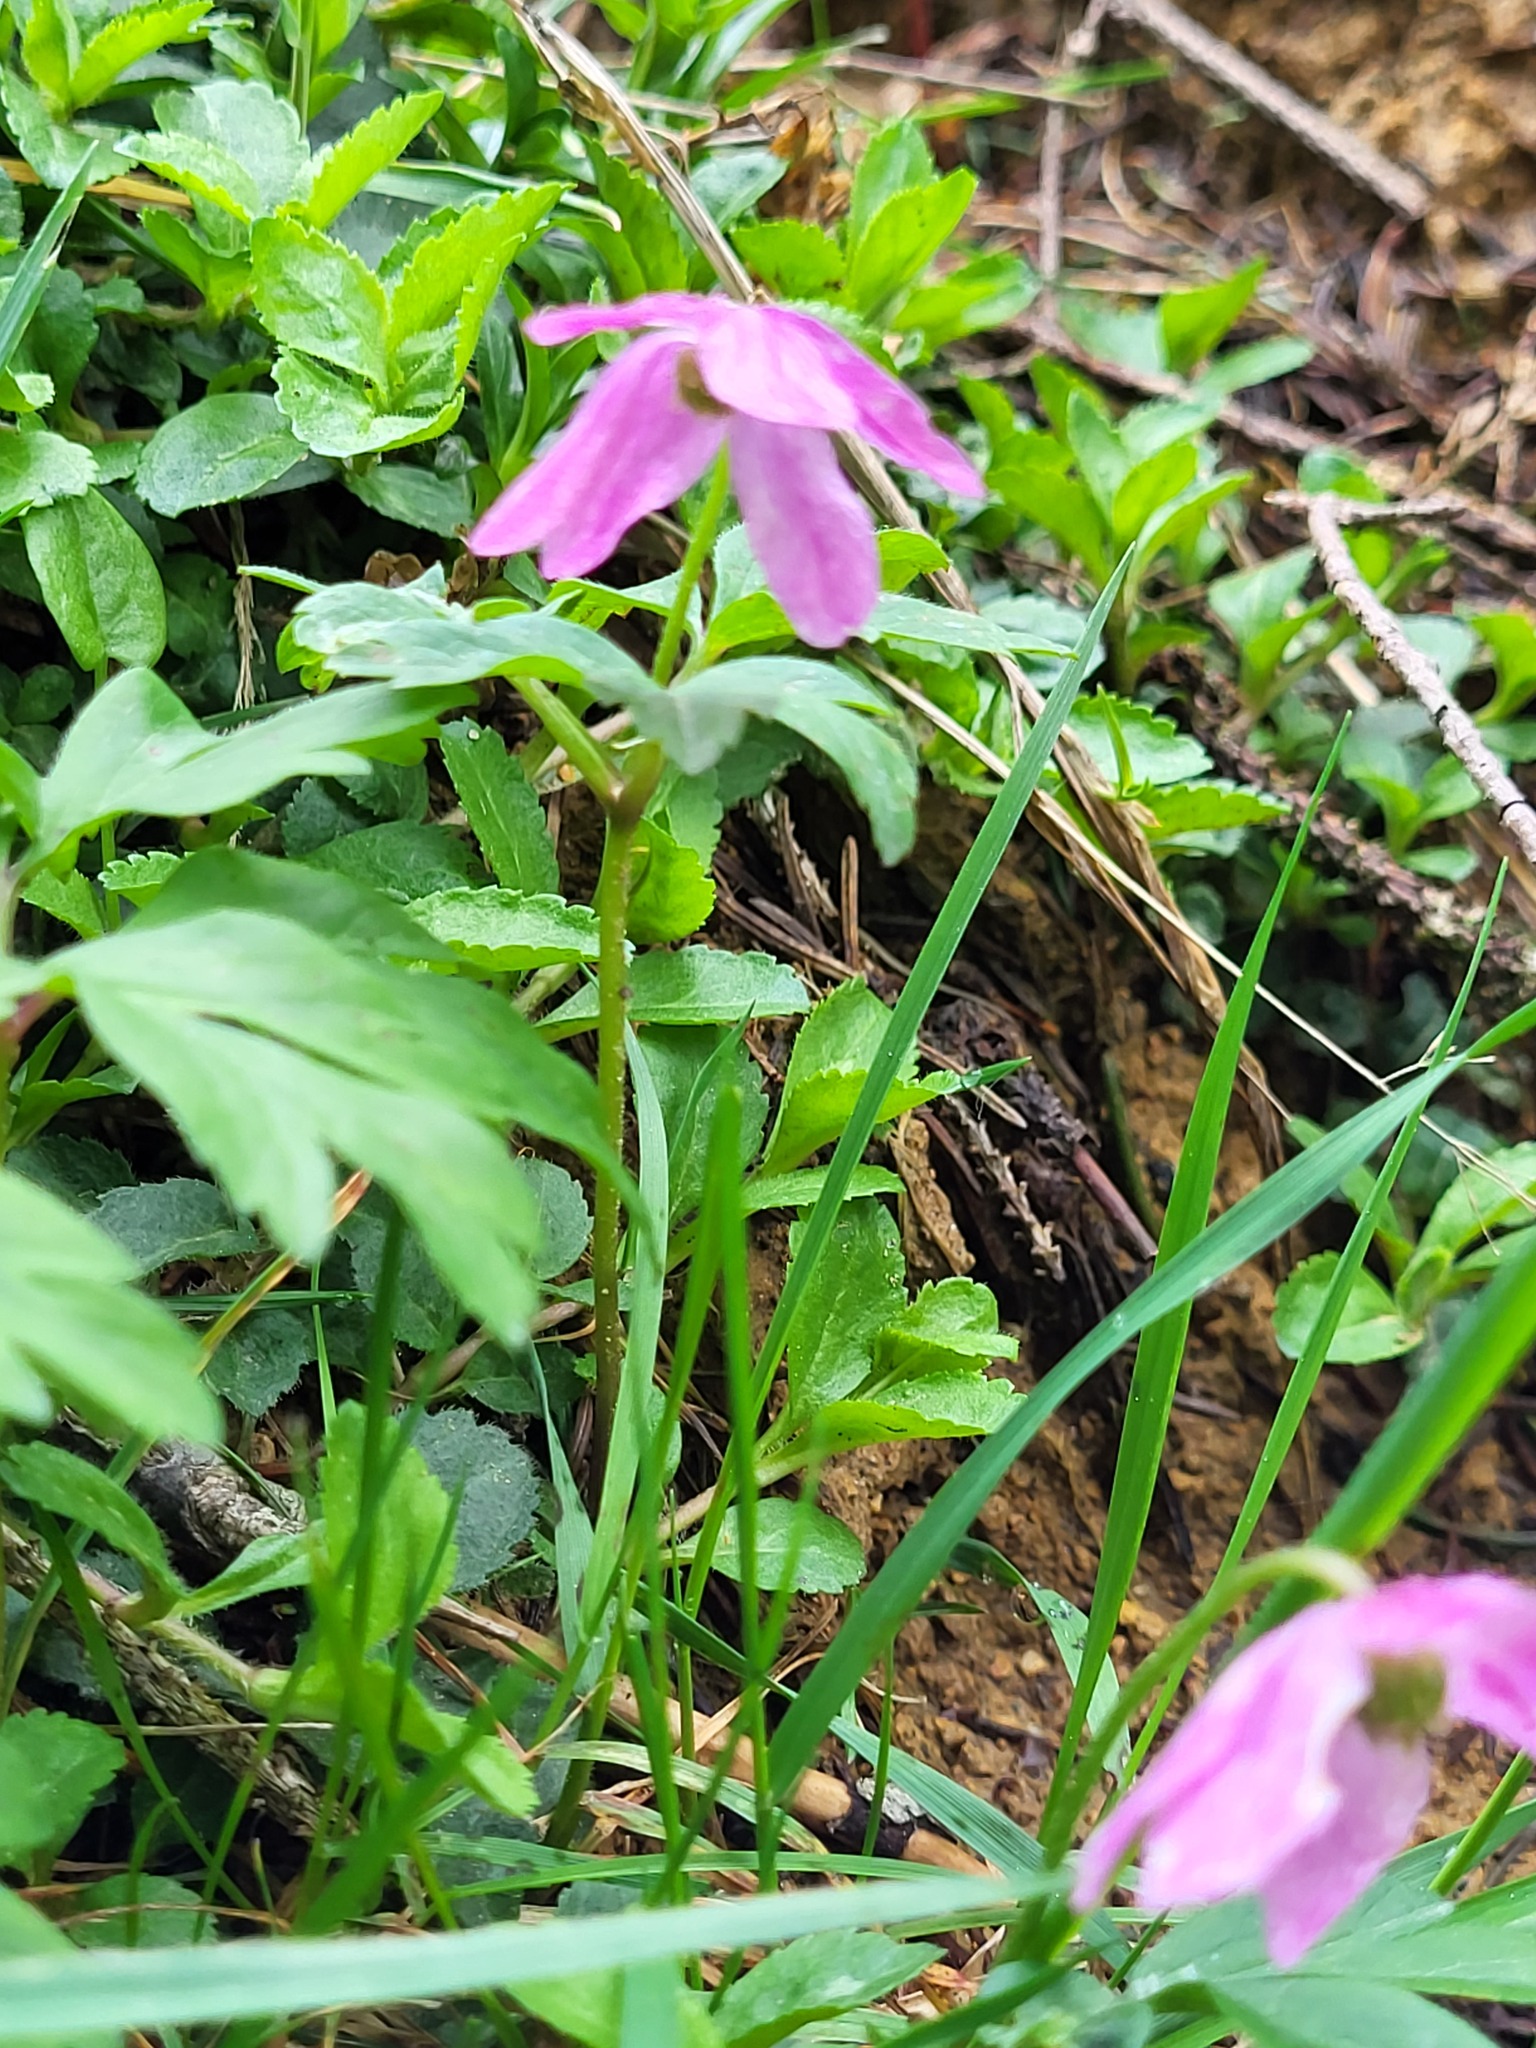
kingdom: Plantae
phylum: Tracheophyta
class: Magnoliopsida
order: Ranunculales
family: Ranunculaceae
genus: Anemone
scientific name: Anemone nemorosa
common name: Wood anemone
